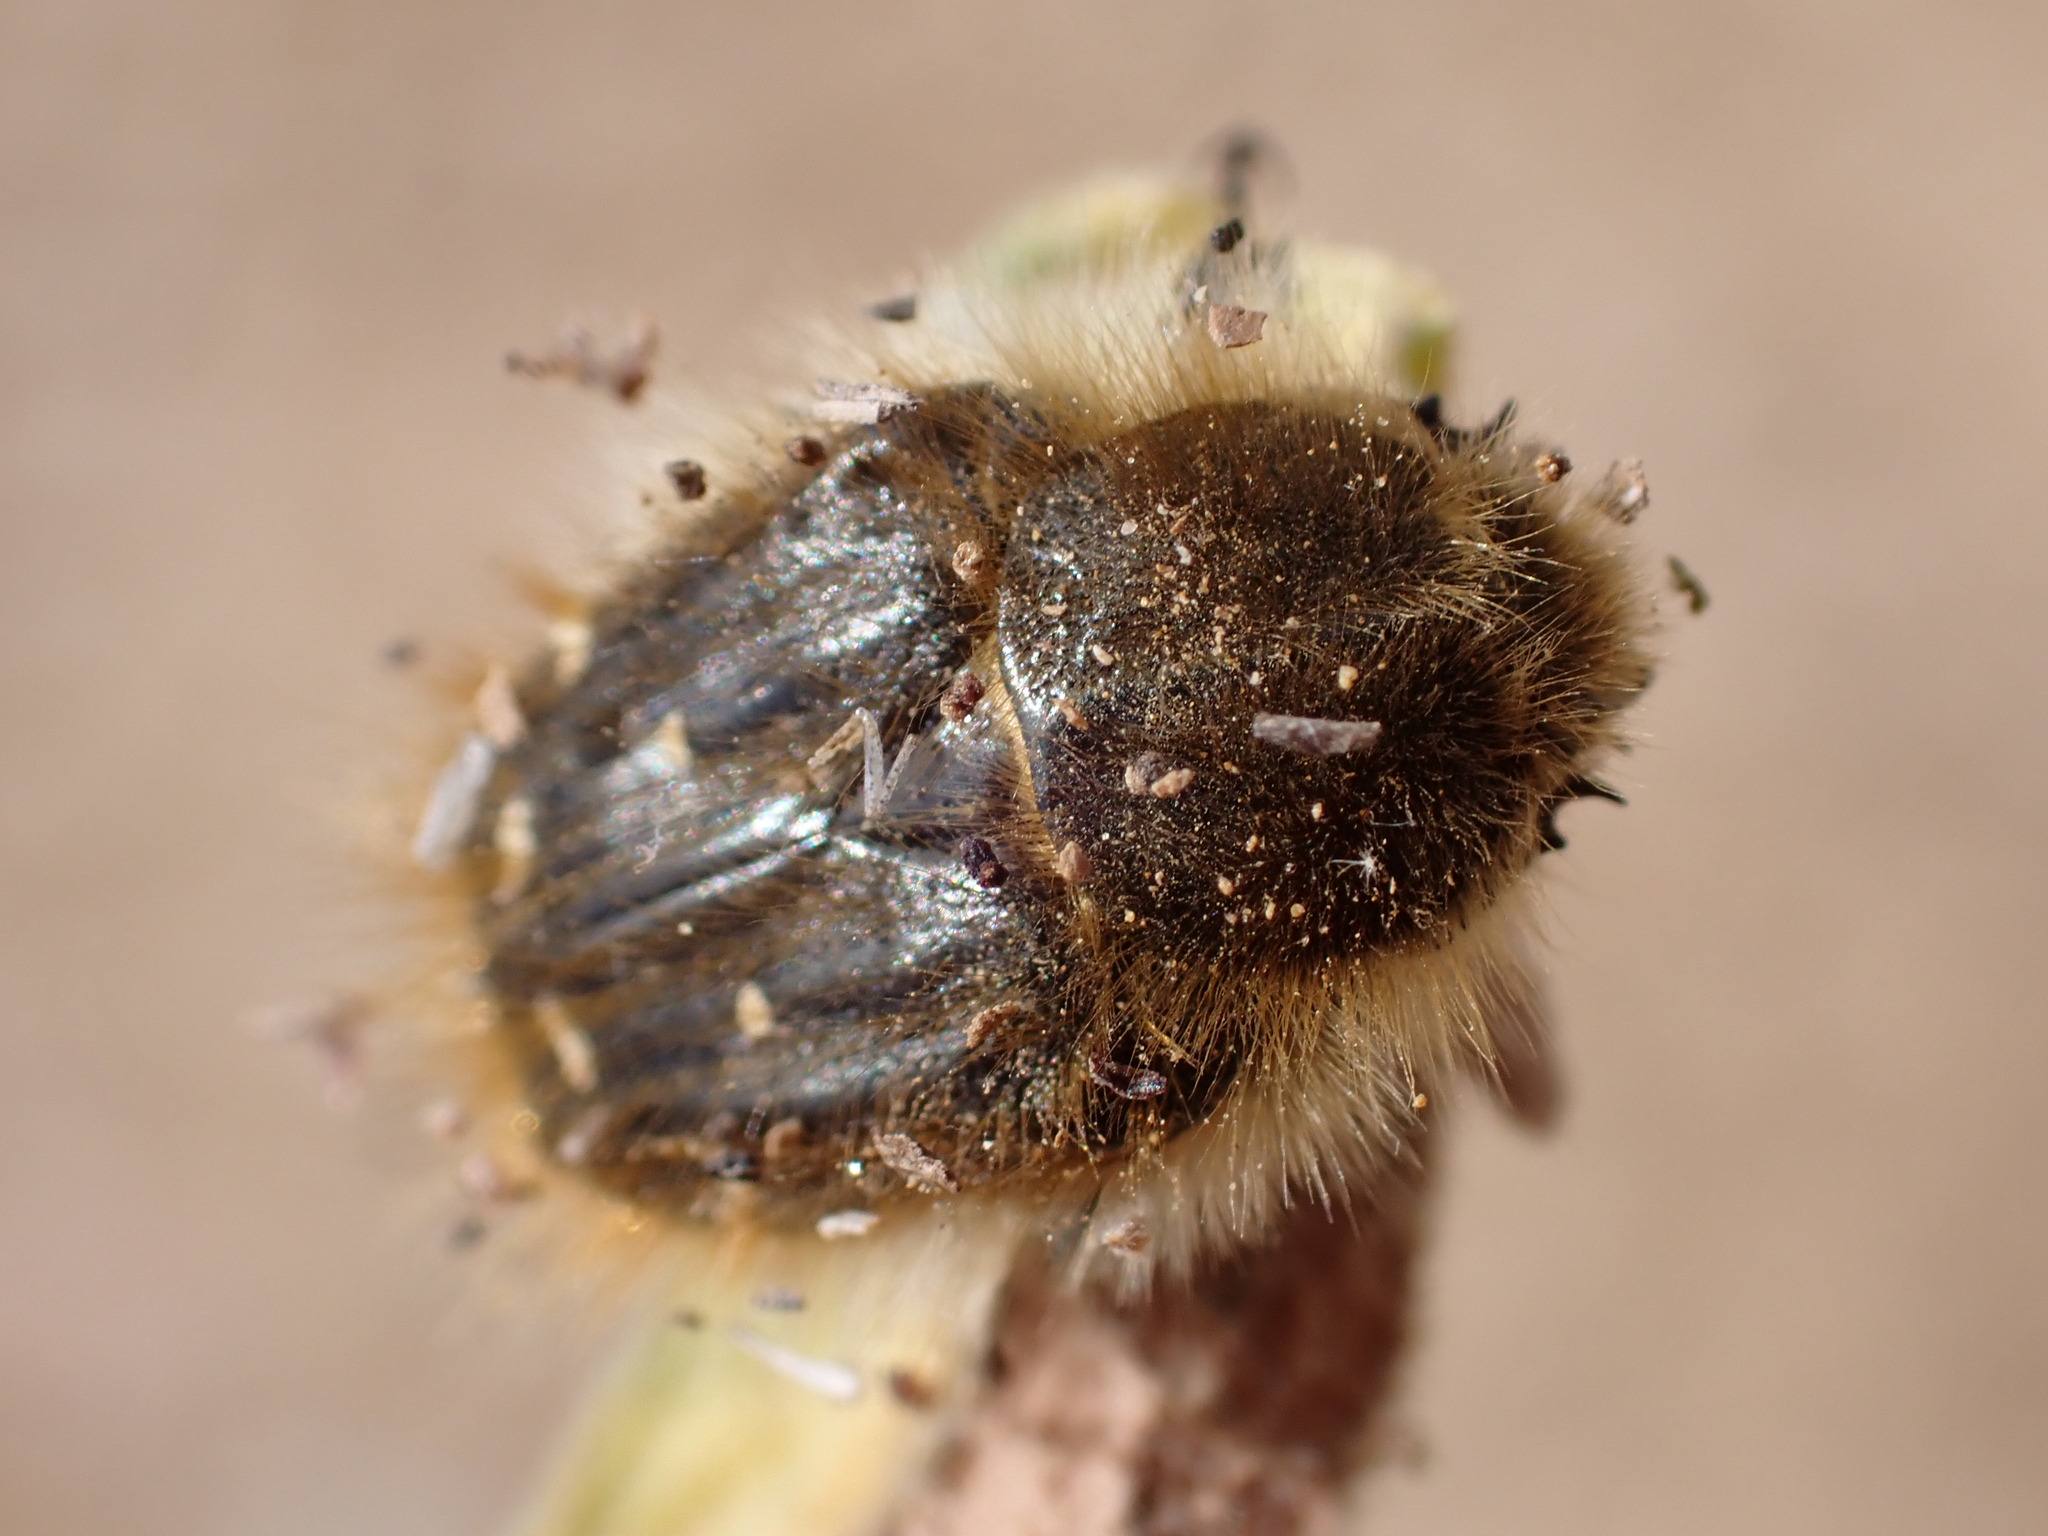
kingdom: Animalia
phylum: Arthropoda
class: Insecta
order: Coleoptera
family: Scarabaeidae
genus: Tropinota
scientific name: Tropinota squalida
